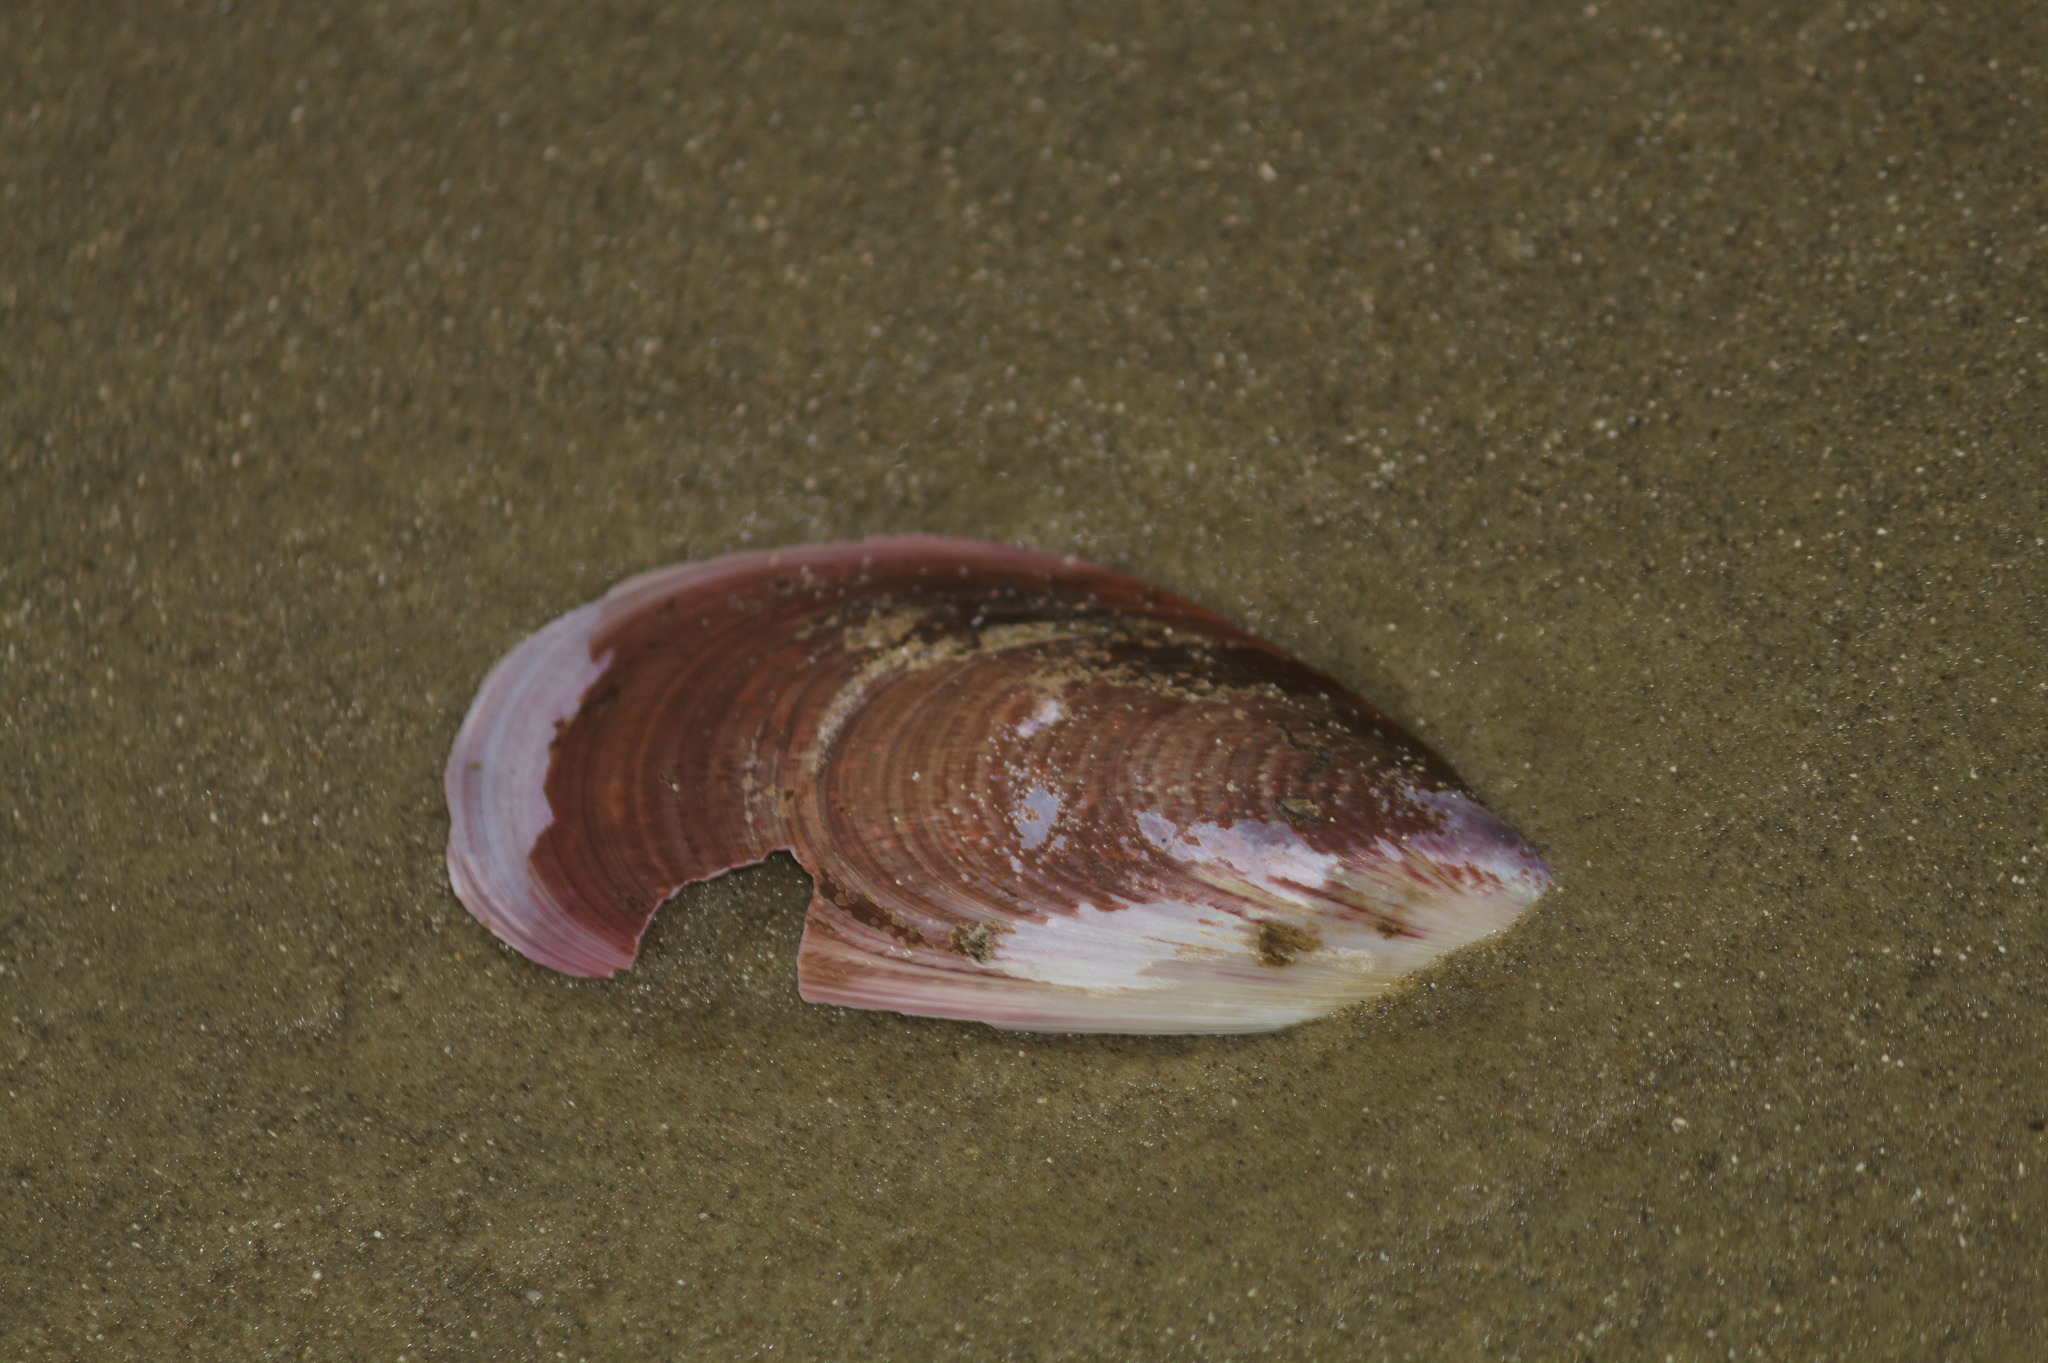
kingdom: Animalia
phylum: Mollusca
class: Bivalvia
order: Mytilida
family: Mytilidae
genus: Perna
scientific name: Perna perna
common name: Mexilhao mussel
